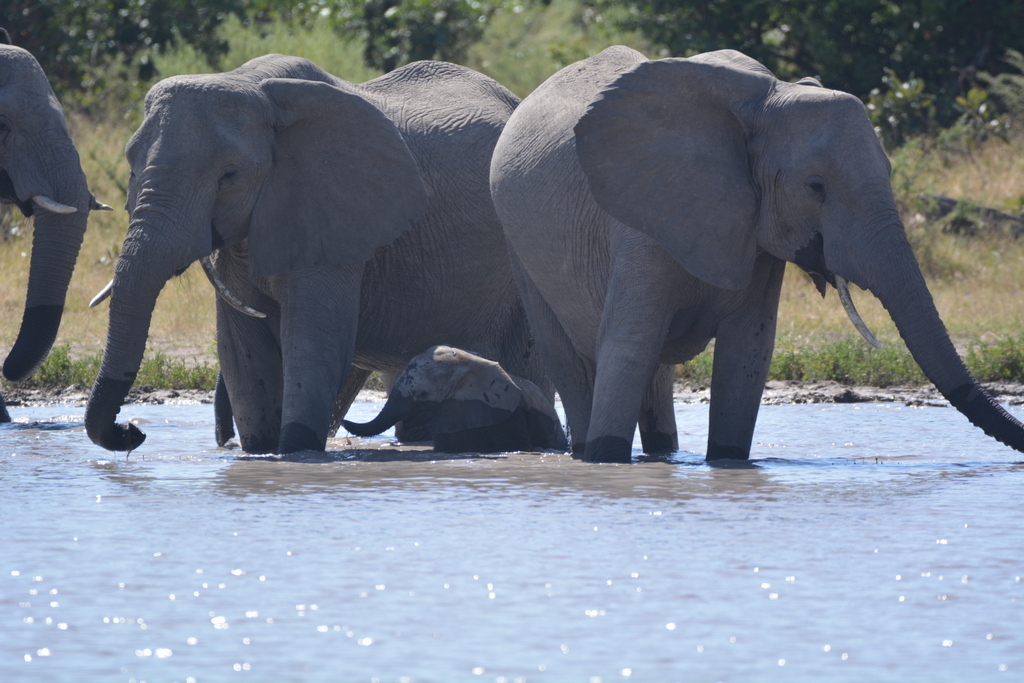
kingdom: Animalia
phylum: Chordata
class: Mammalia
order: Proboscidea
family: Elephantidae
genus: Loxodonta
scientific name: Loxodonta africana
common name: African elephant
